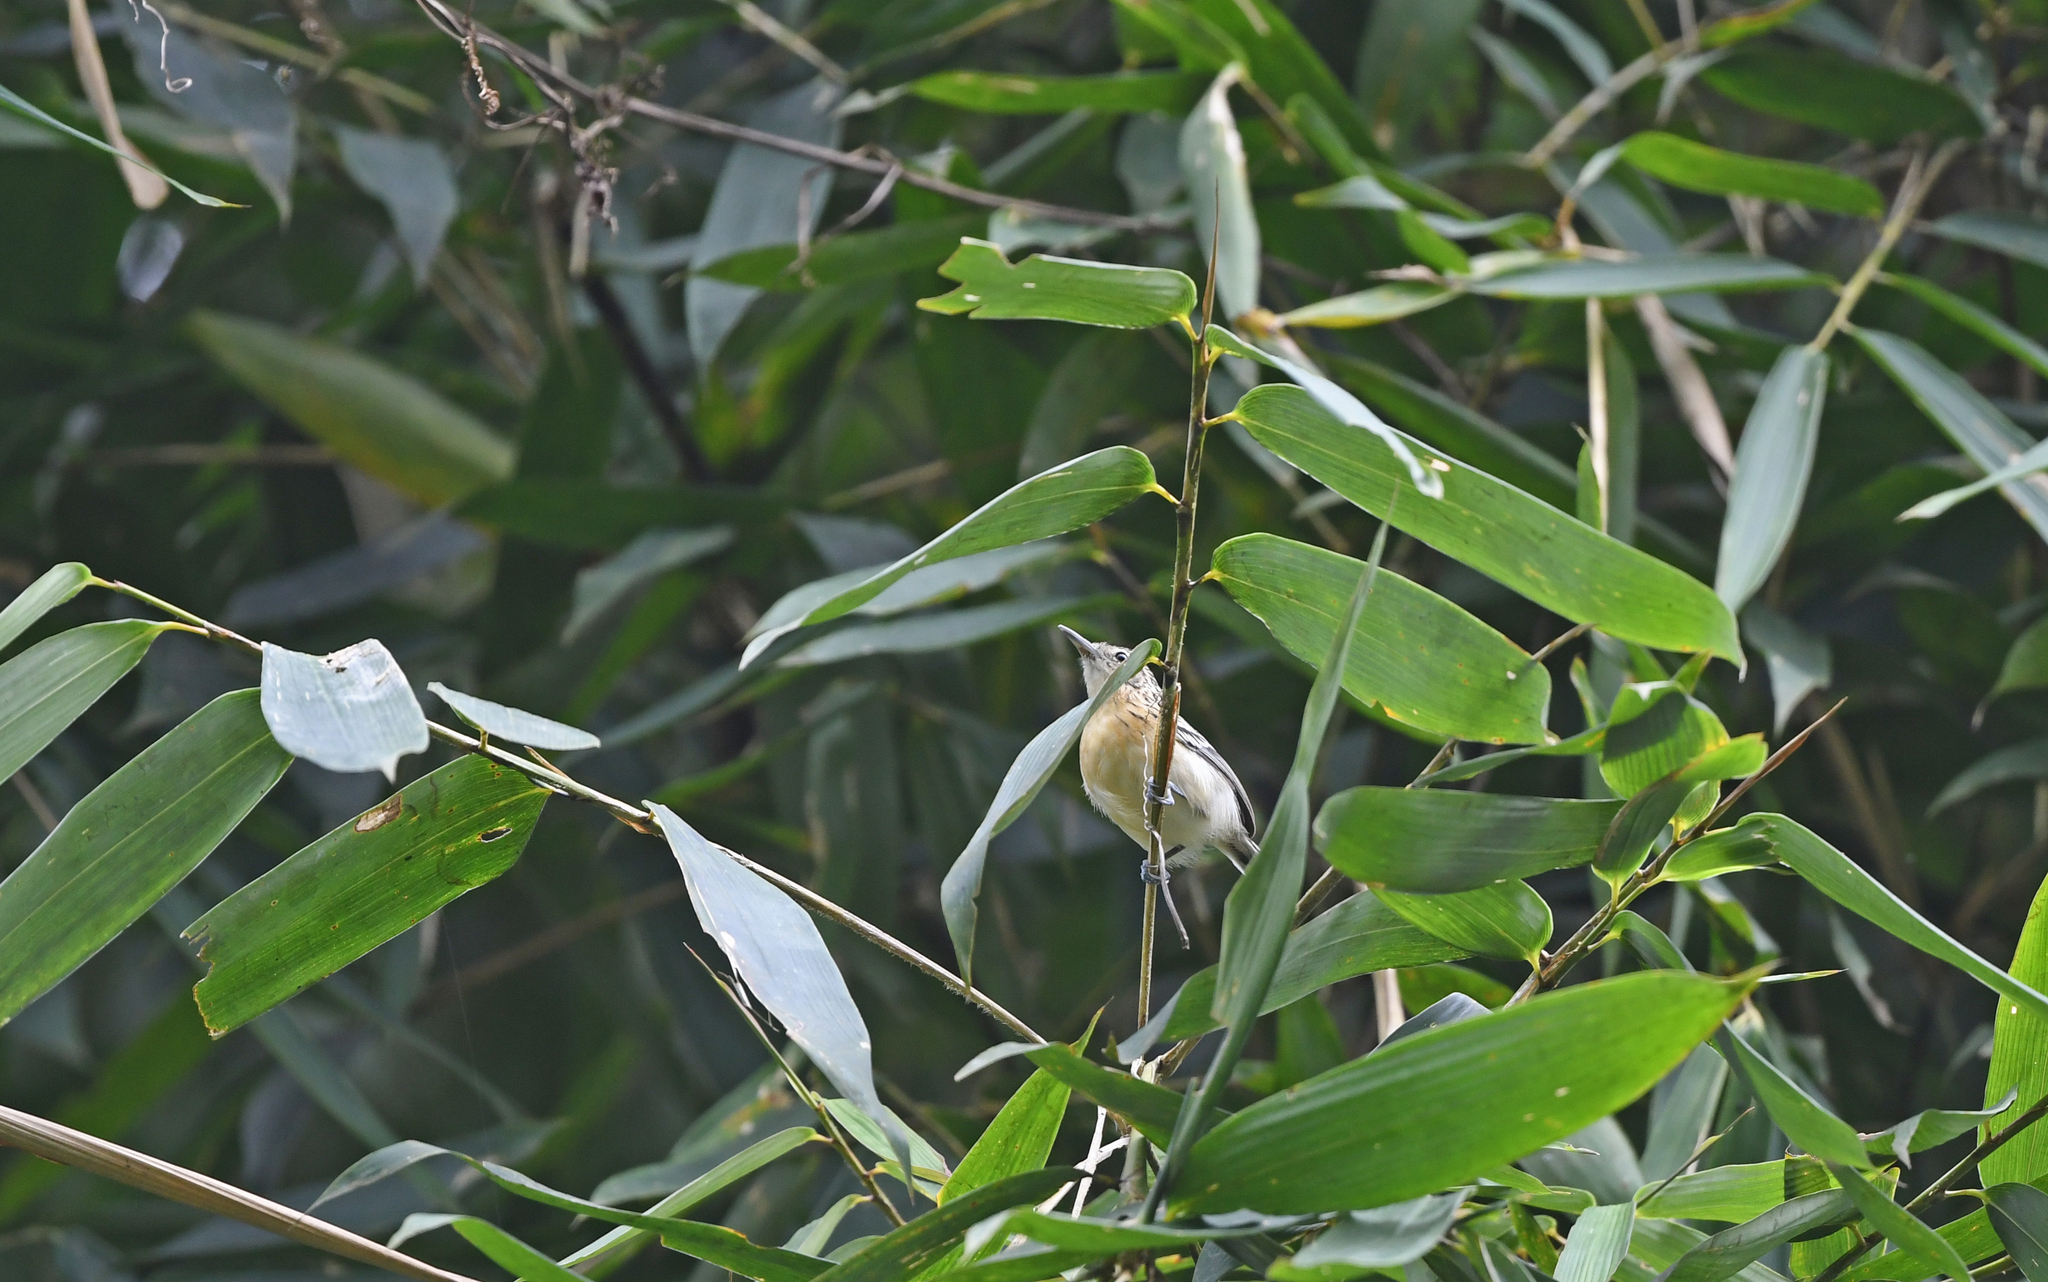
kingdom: Animalia
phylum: Chordata
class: Aves
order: Passeriformes
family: Thamnophilidae
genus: Myrmotherula
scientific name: Myrmotherula longicauda
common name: Stripe-chested antwren
